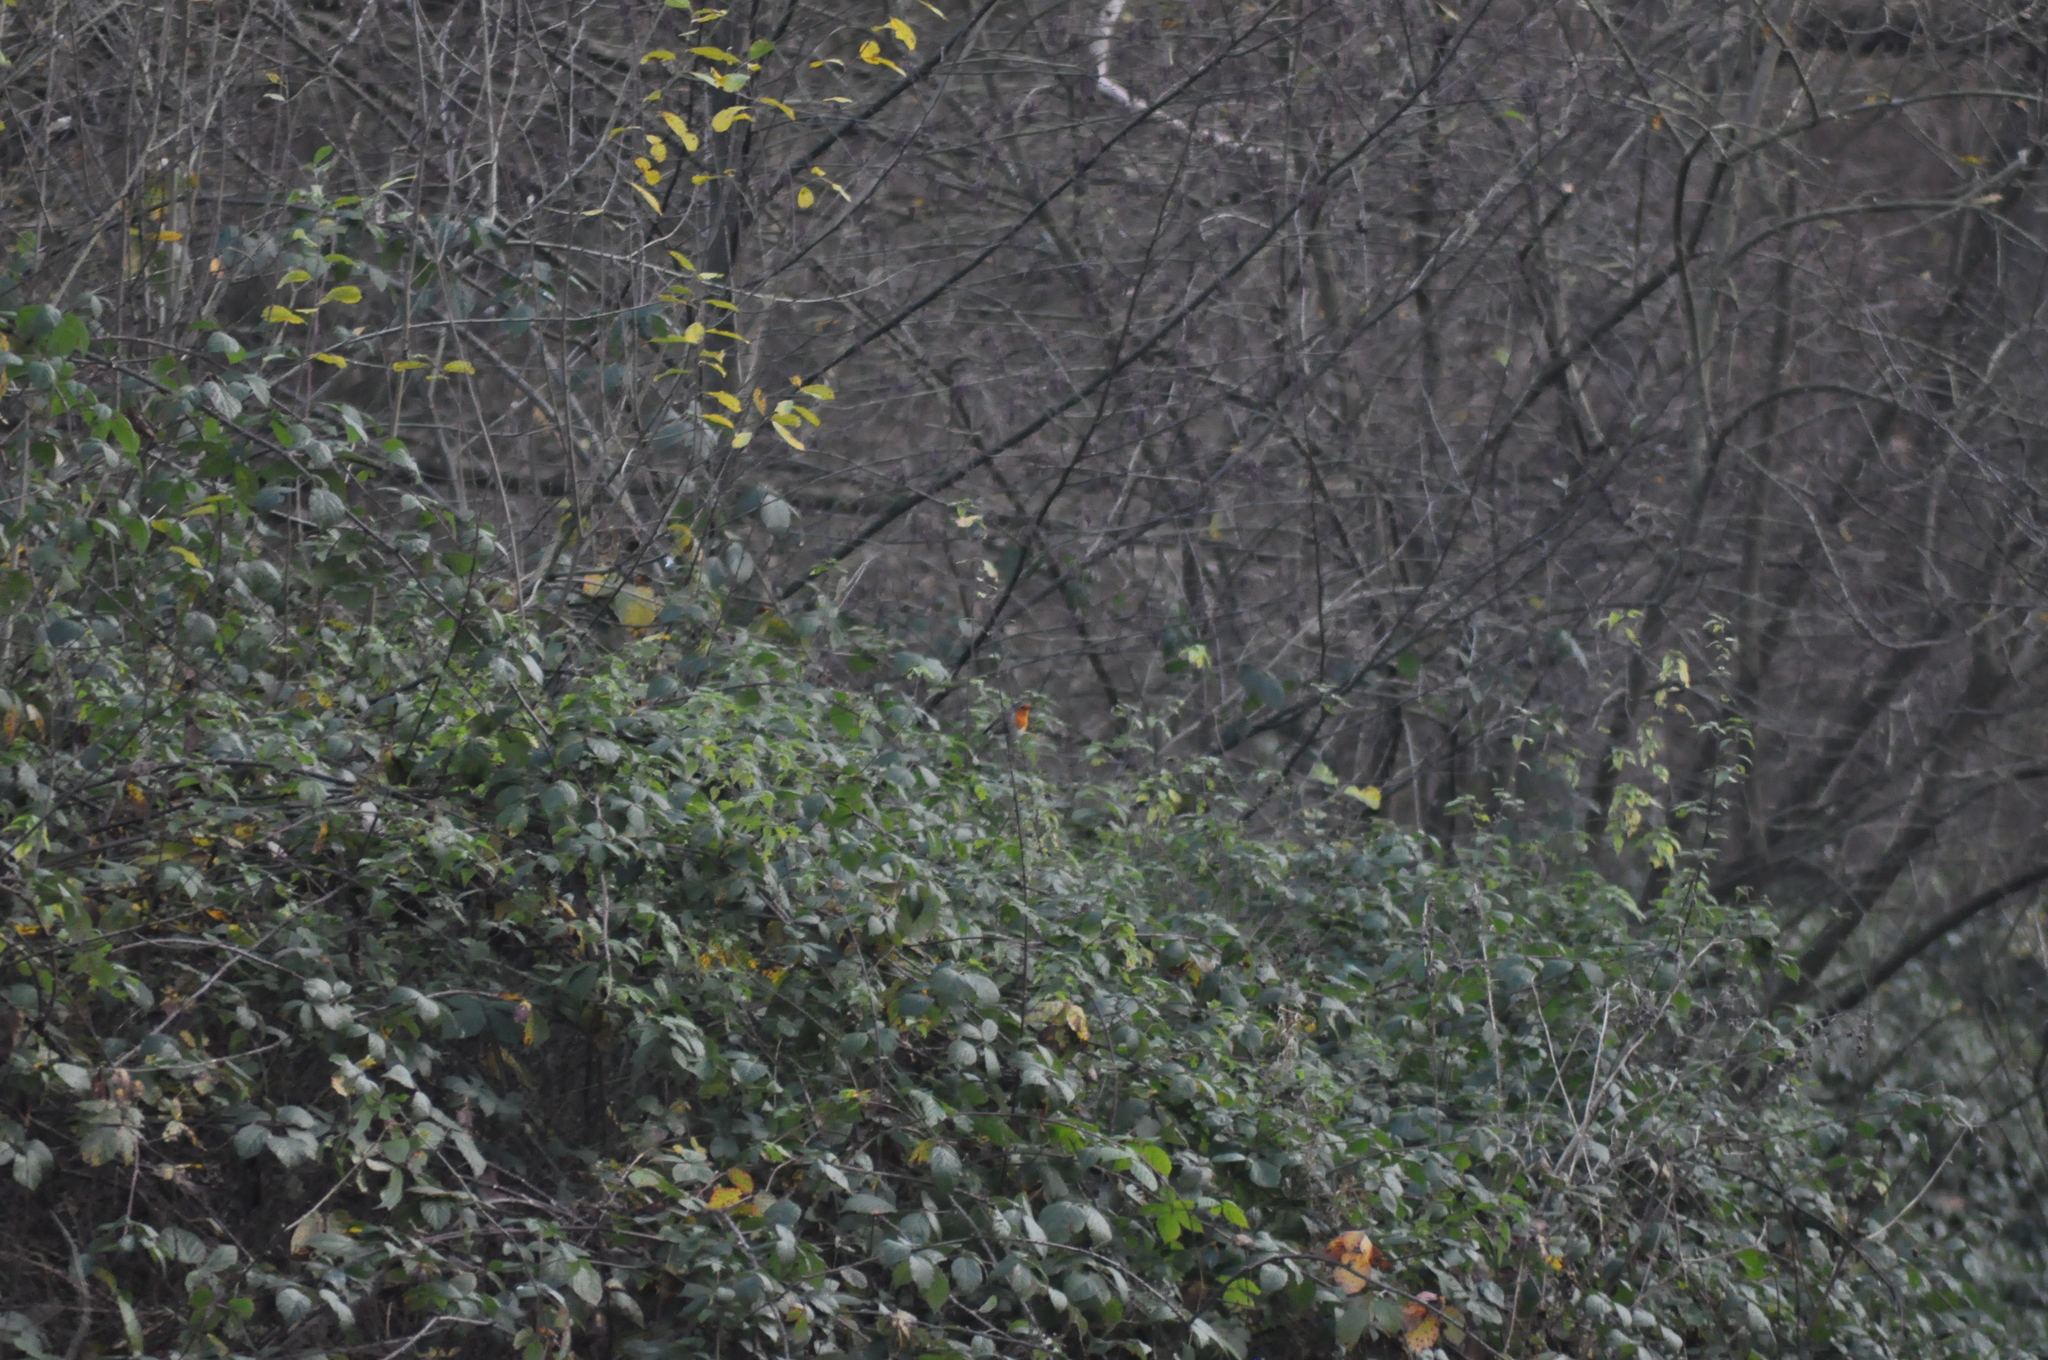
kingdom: Animalia
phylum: Chordata
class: Aves
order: Passeriformes
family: Muscicapidae
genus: Erithacus
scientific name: Erithacus rubecula
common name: European robin
